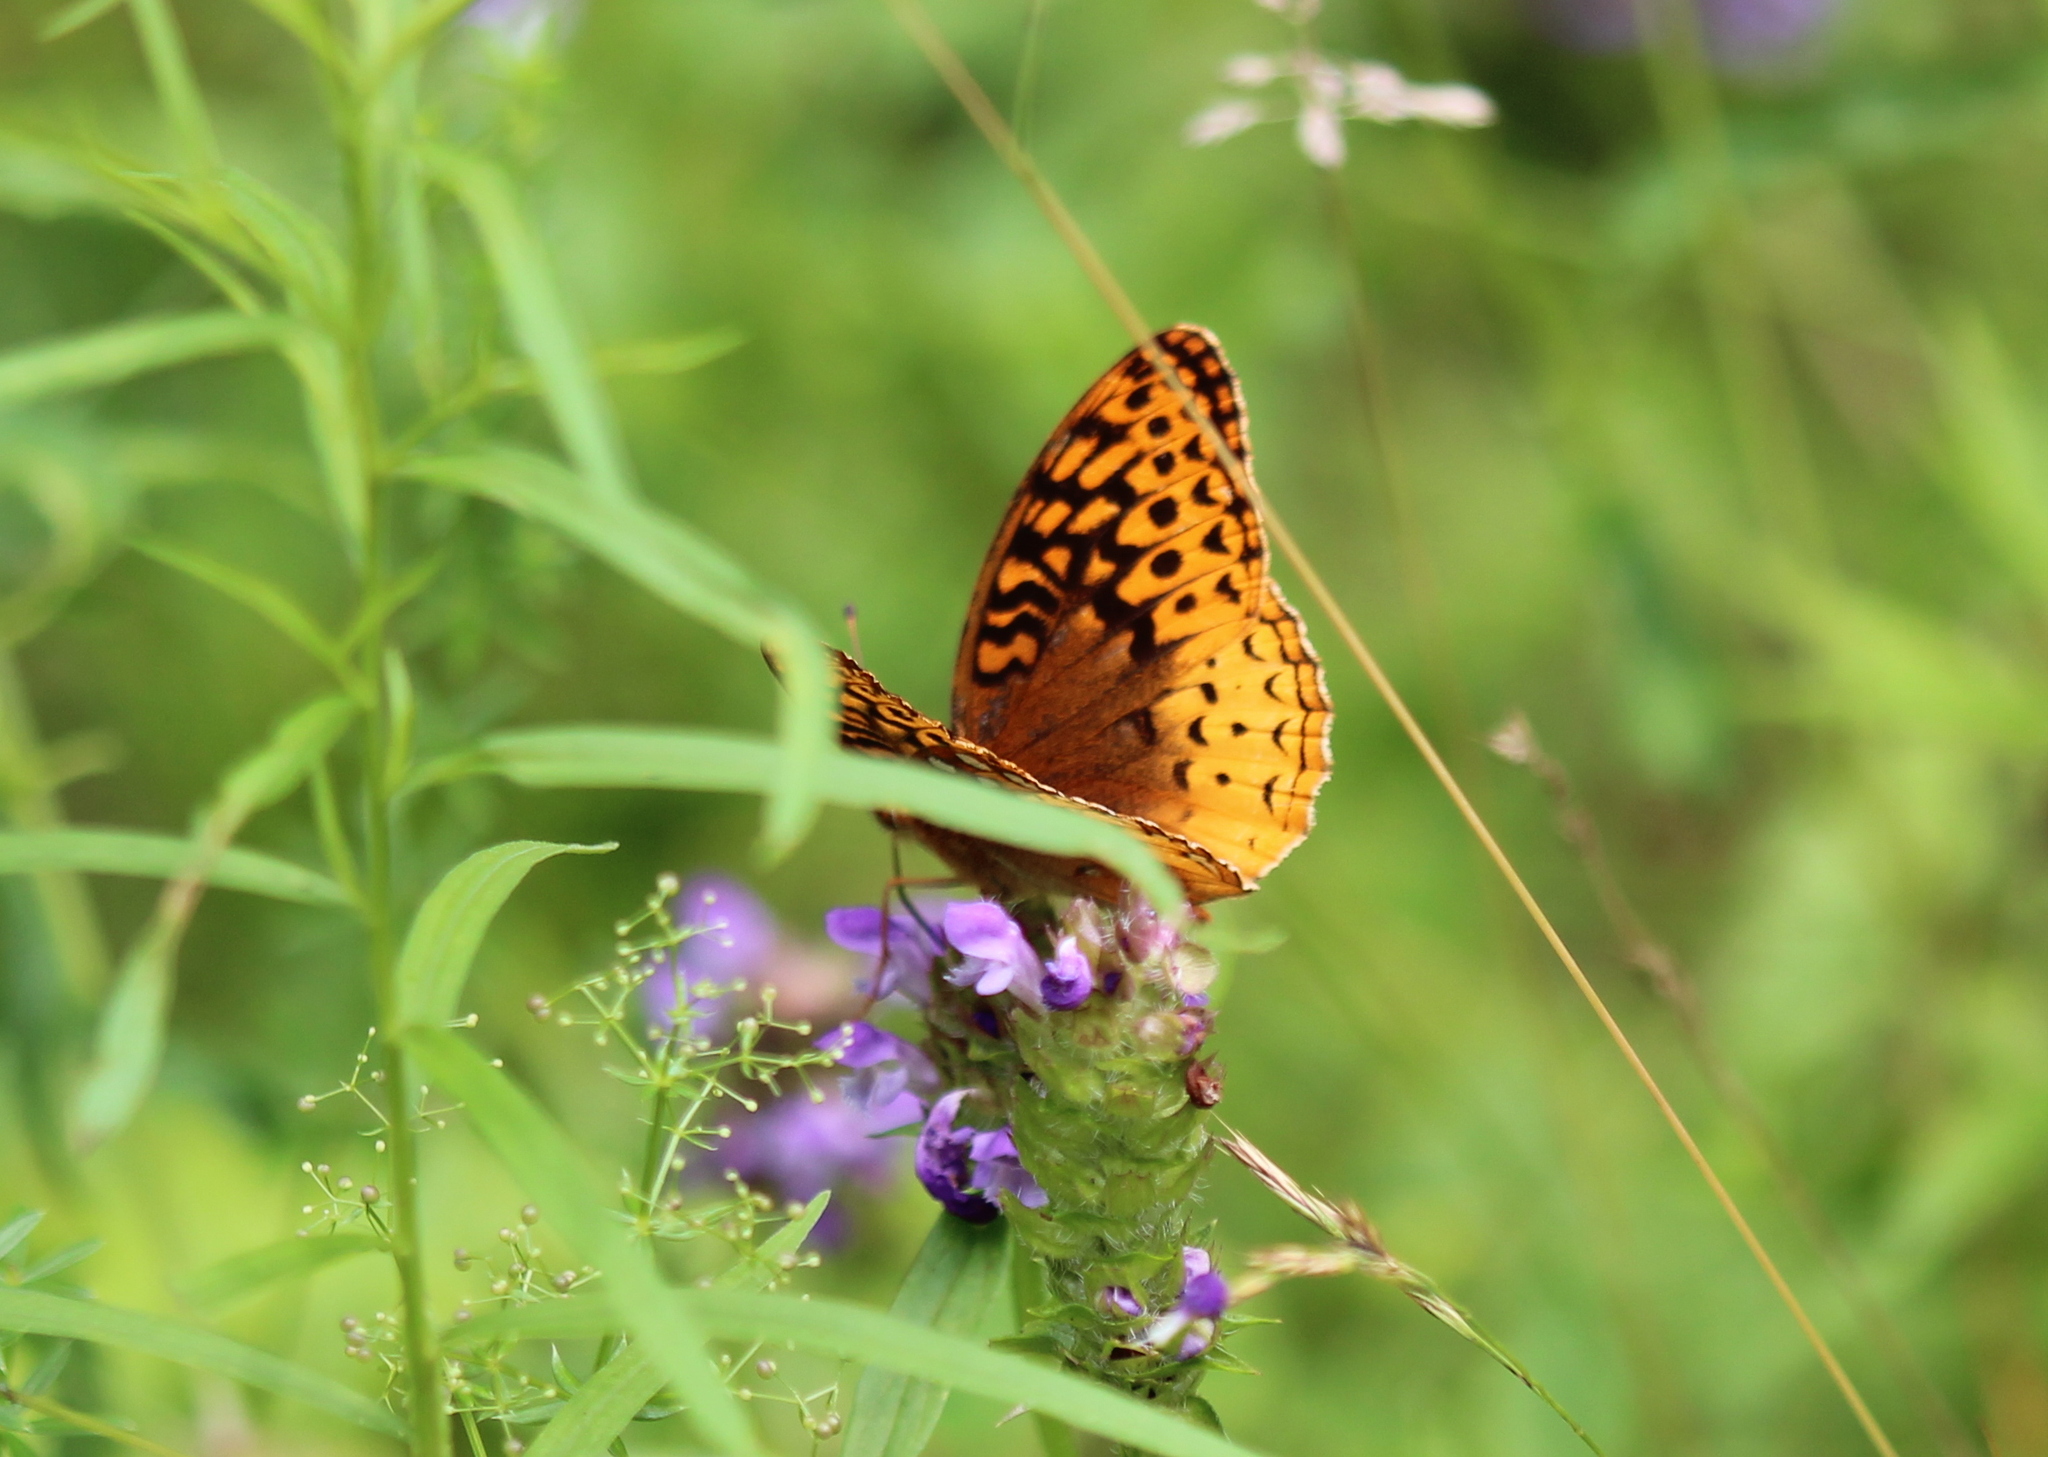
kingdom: Animalia
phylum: Arthropoda
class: Insecta
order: Lepidoptera
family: Nymphalidae
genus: Speyeria
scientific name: Speyeria cybele
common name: Great spangled fritillary
